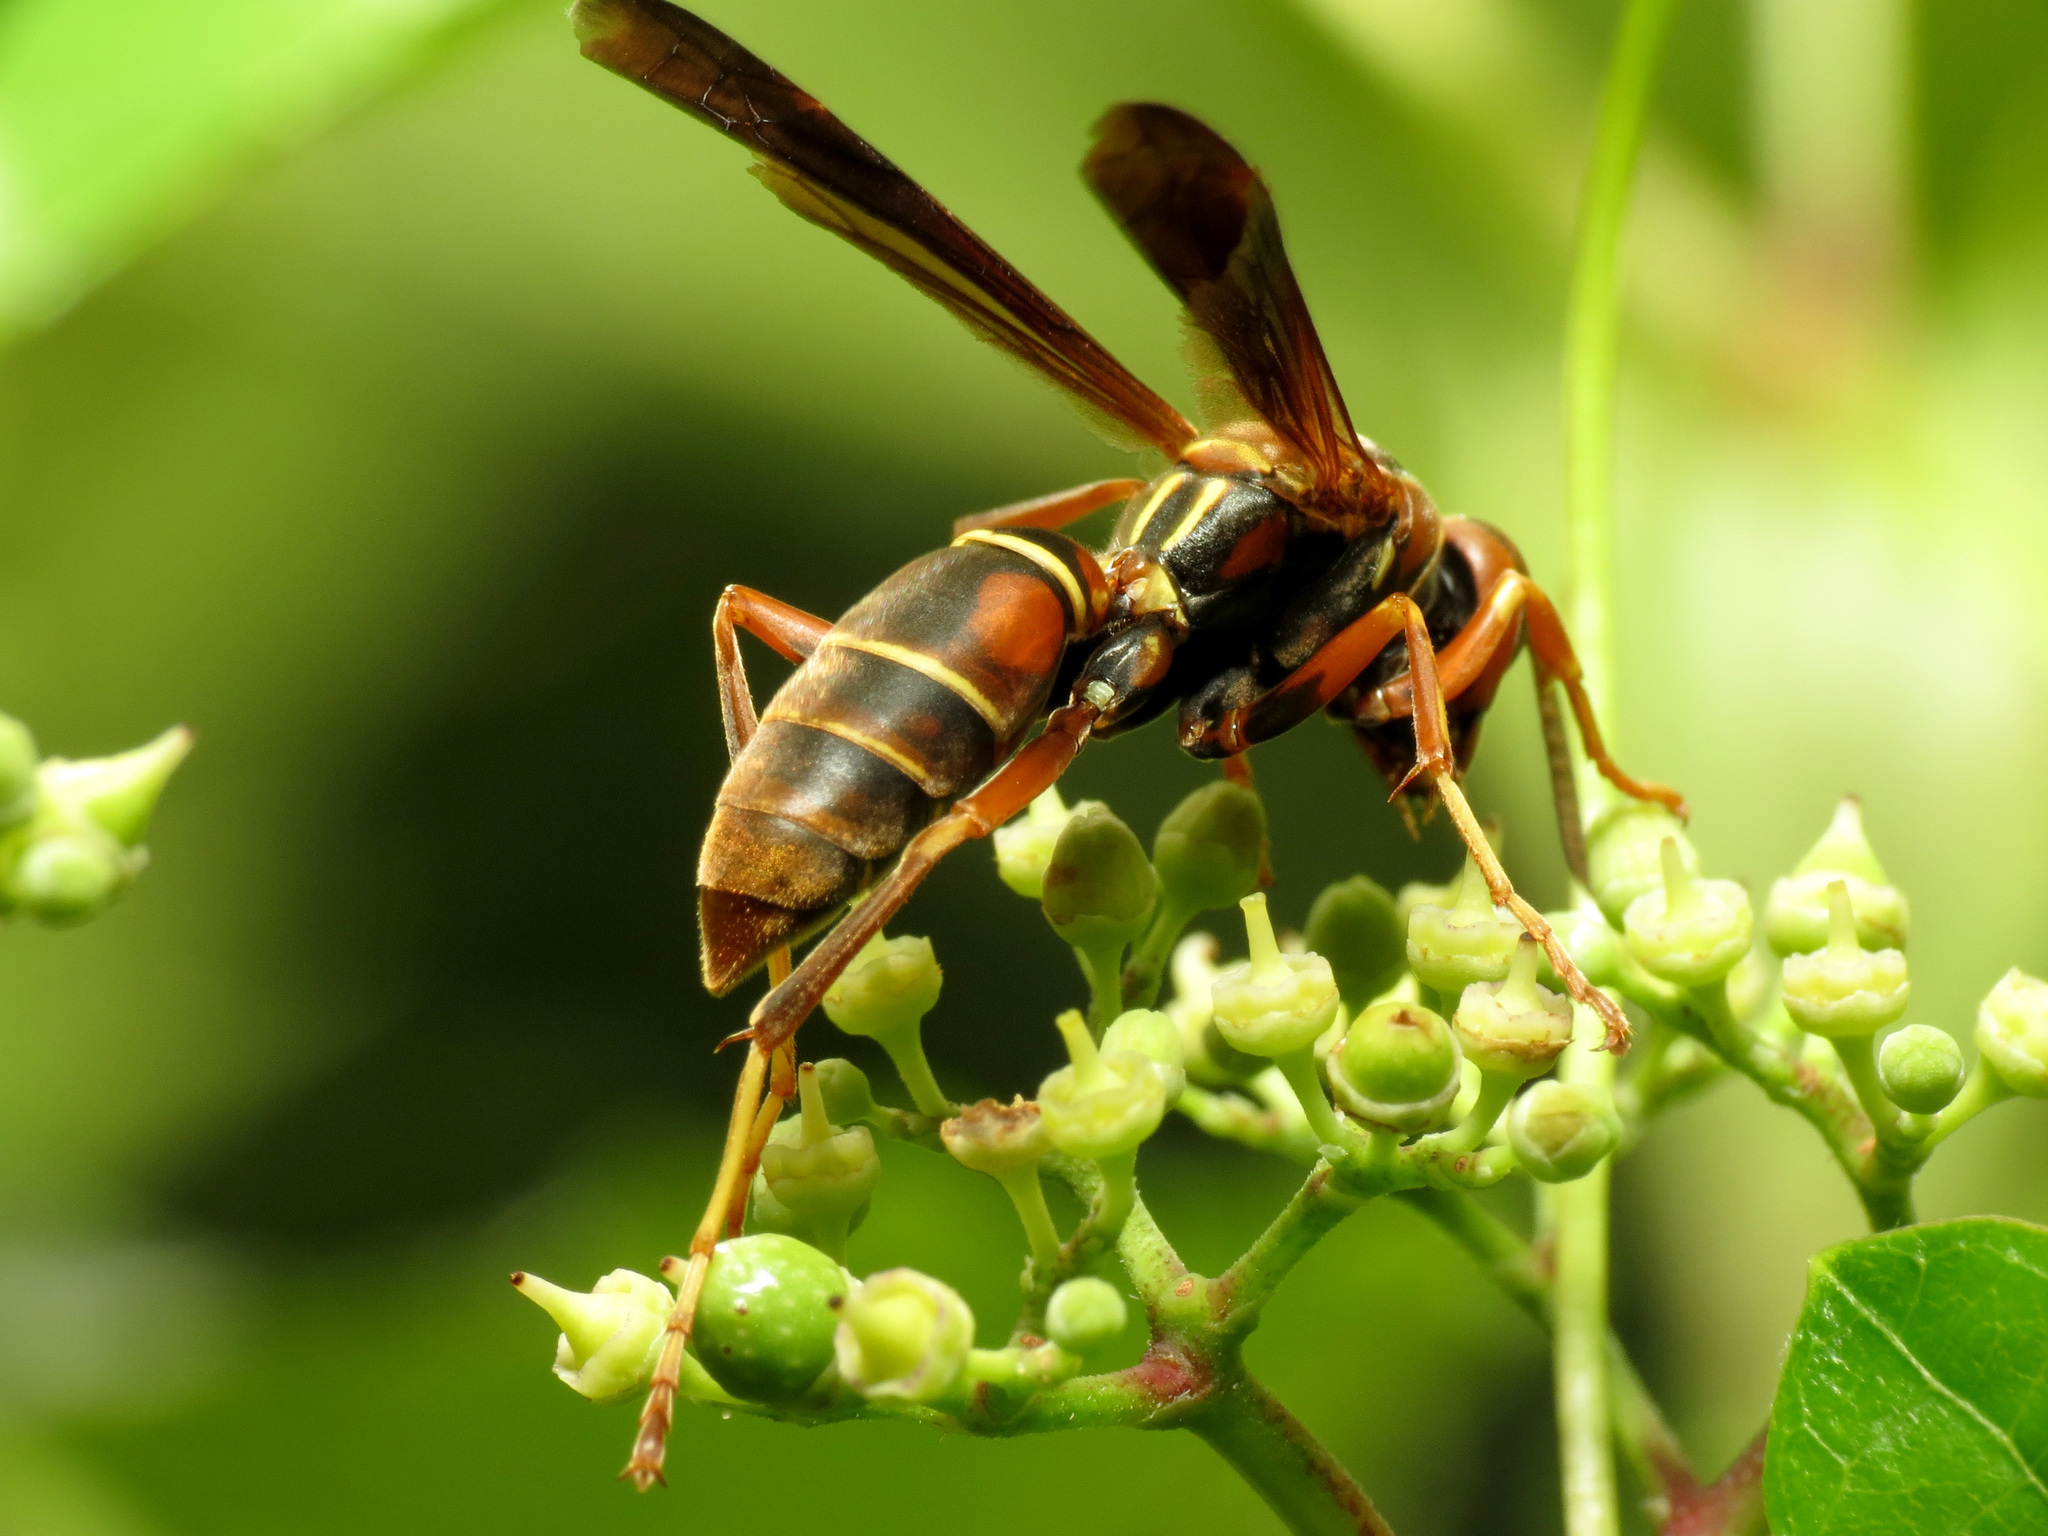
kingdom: Animalia
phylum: Arthropoda
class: Insecta
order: Hymenoptera
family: Eumenidae
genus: Polistes
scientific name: Polistes fuscatus
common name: Dark paper wasp
